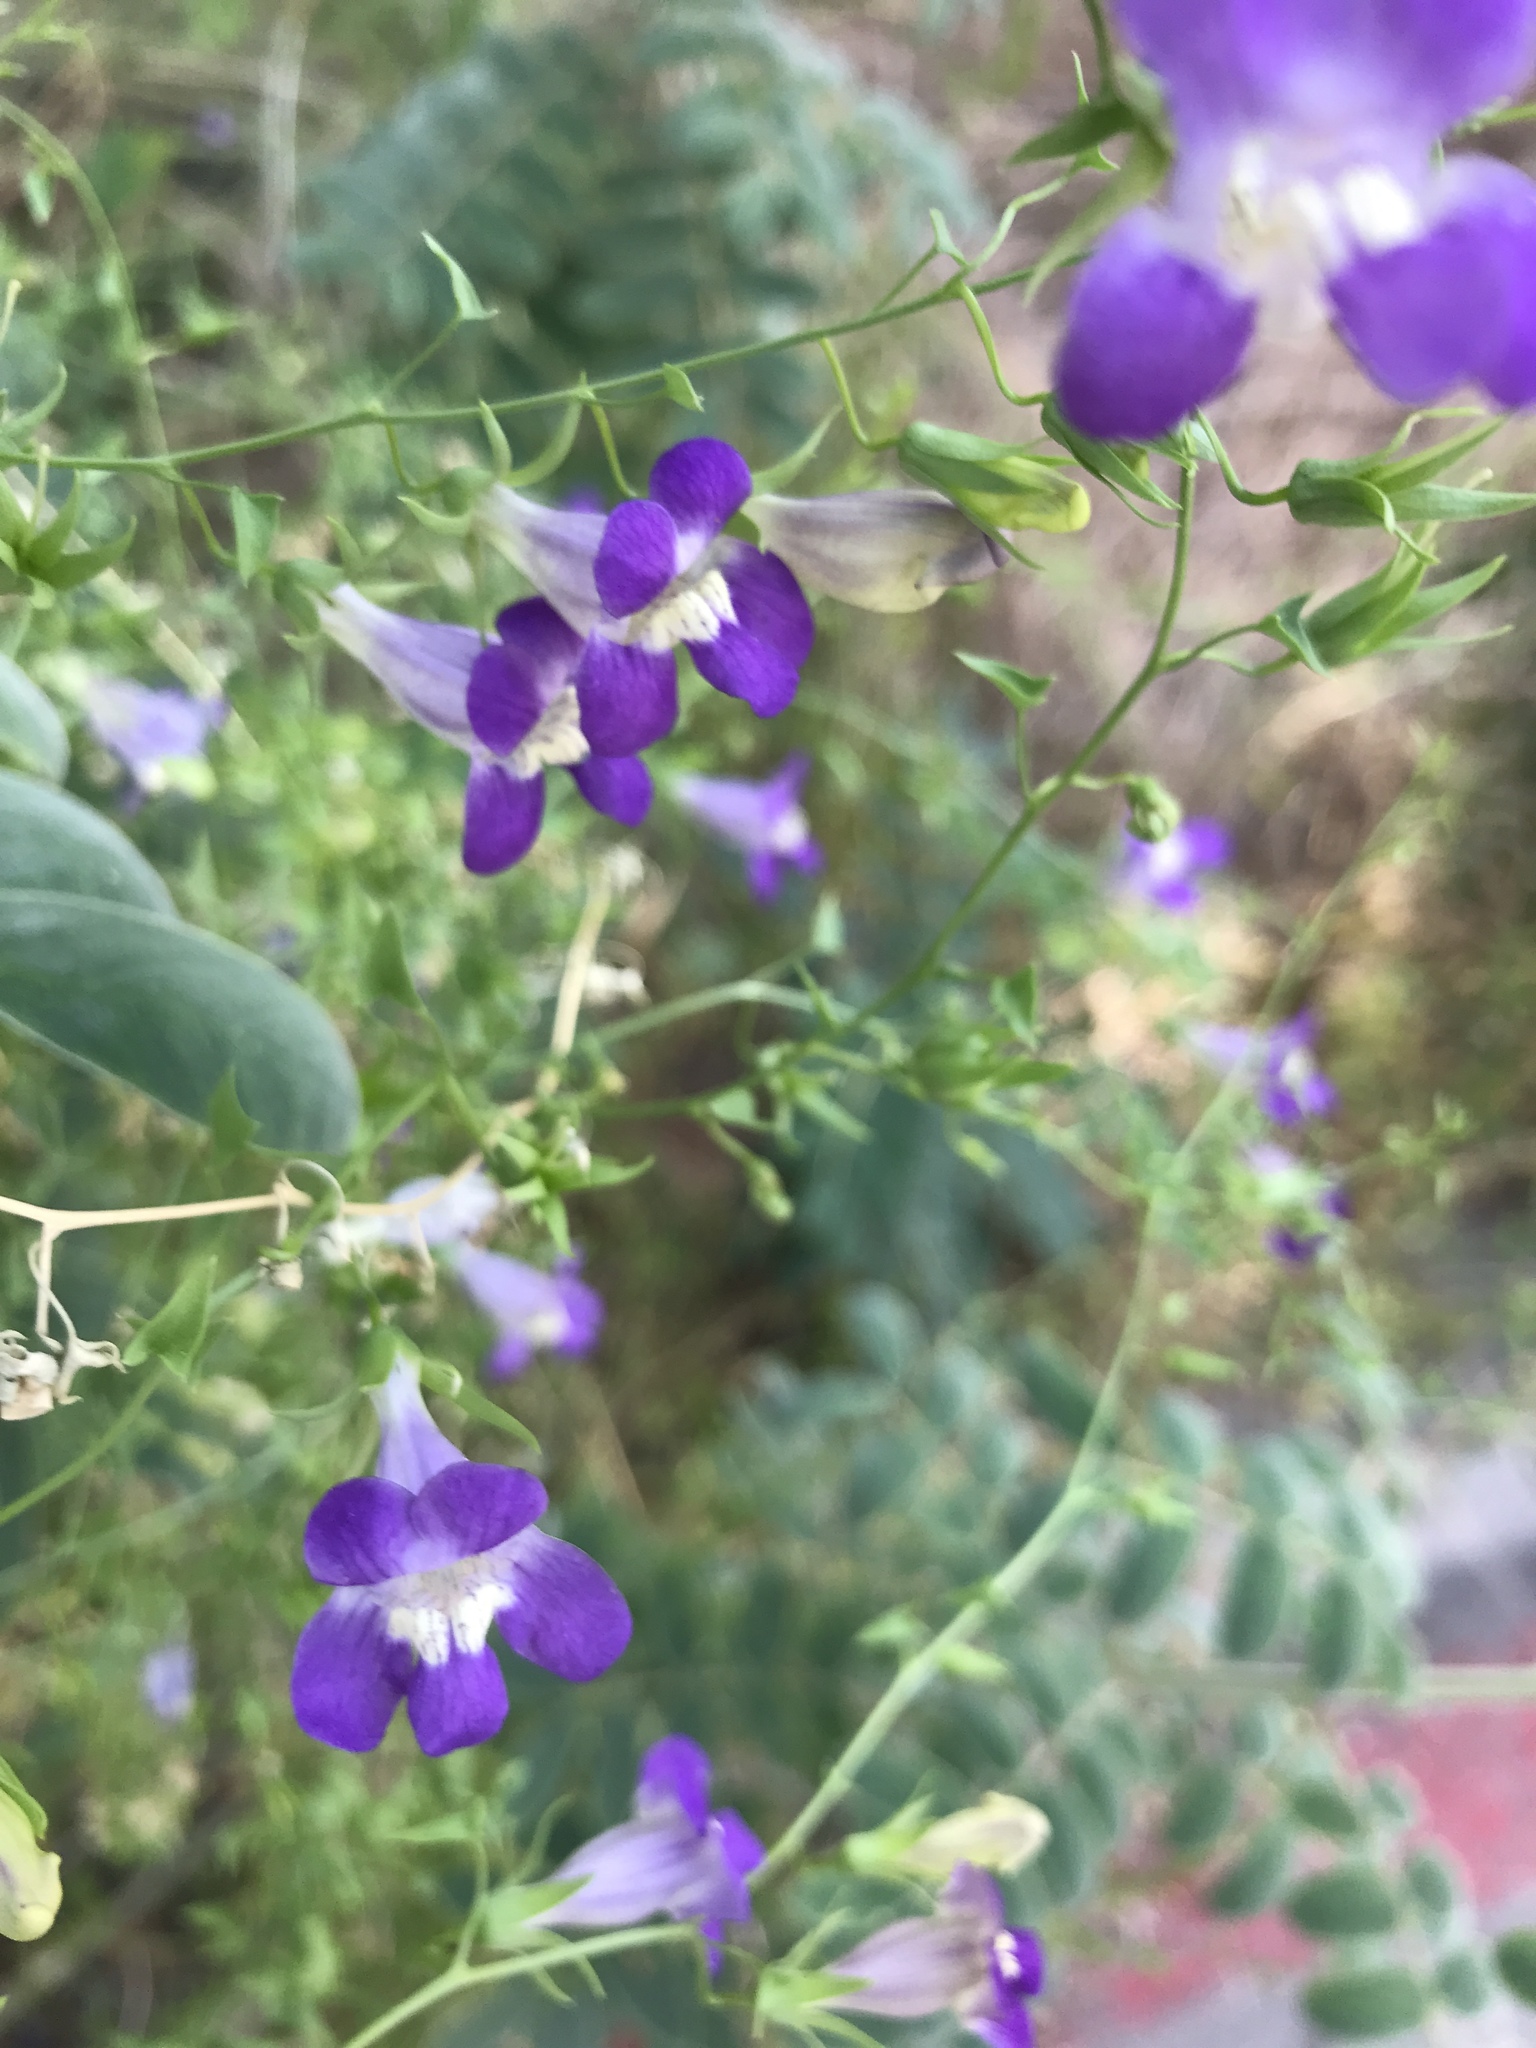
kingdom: Plantae
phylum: Tracheophyta
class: Magnoliopsida
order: Lamiales
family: Plantaginaceae
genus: Maurandella
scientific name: Maurandella antirrhiniflora
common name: Violet twining-snapdragon
